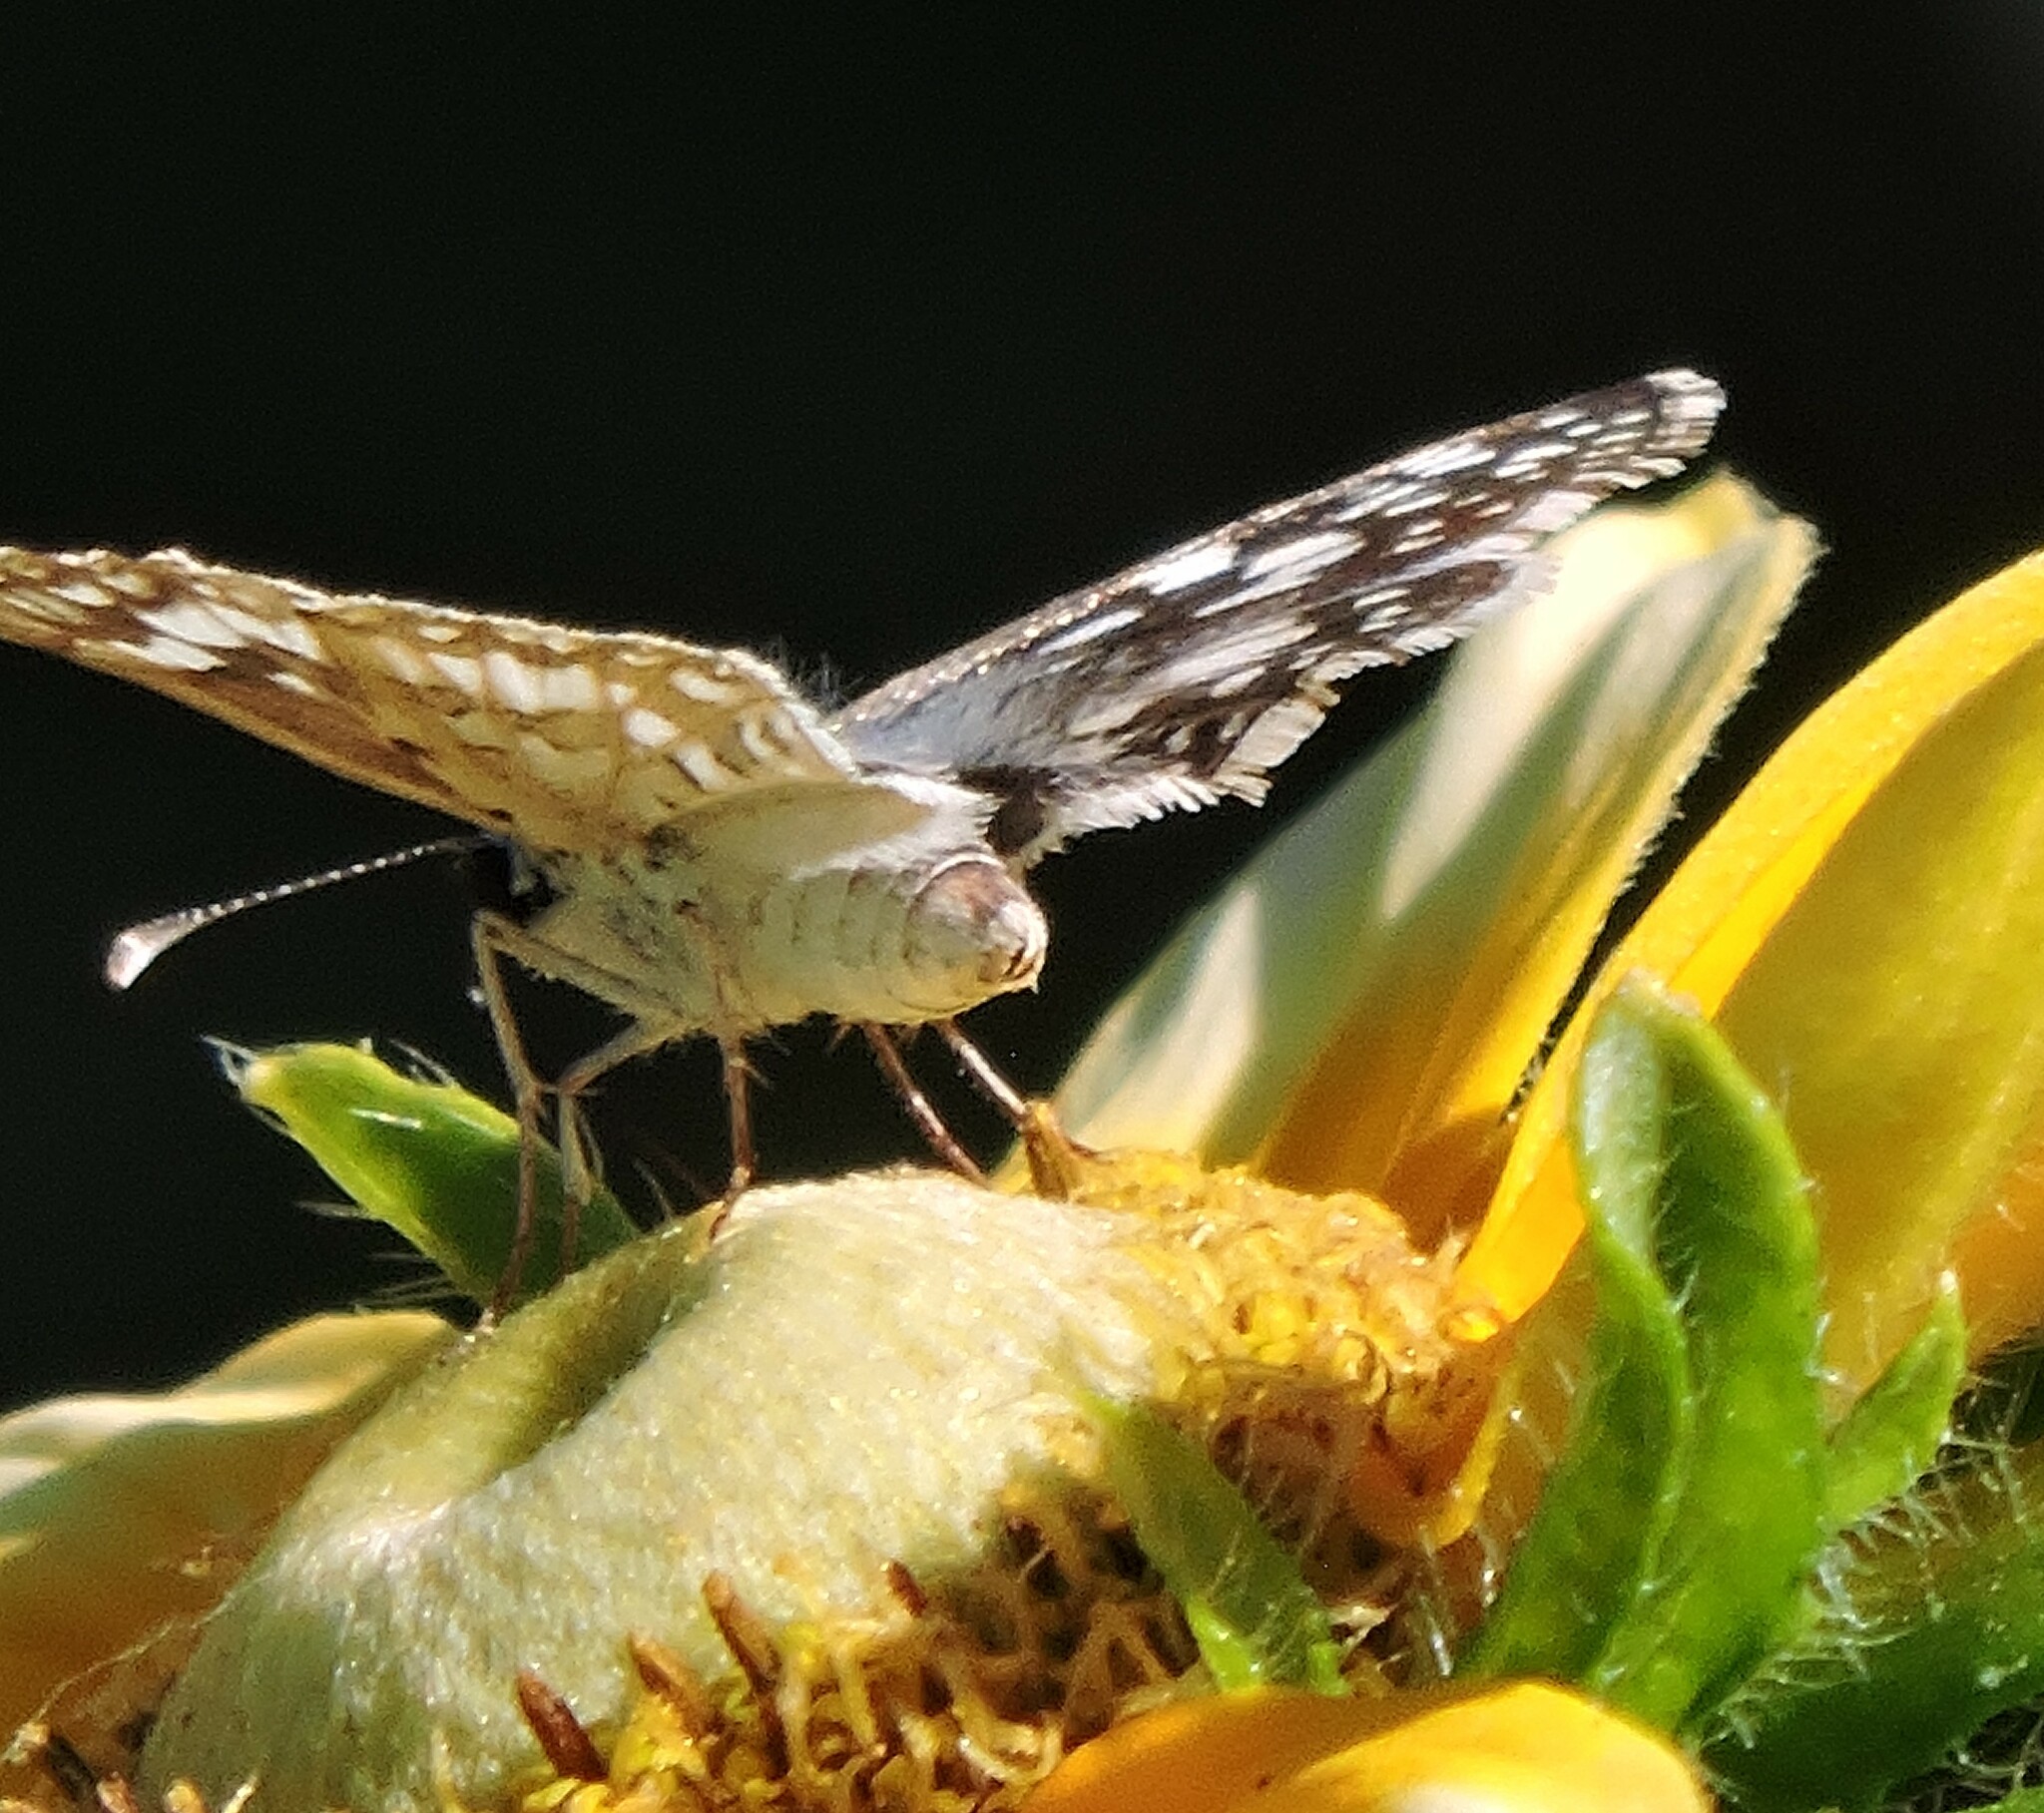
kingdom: Animalia
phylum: Arthropoda
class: Insecta
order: Lepidoptera
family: Hesperiidae
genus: Burnsius
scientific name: Burnsius communis
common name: Common checkered-skipper
